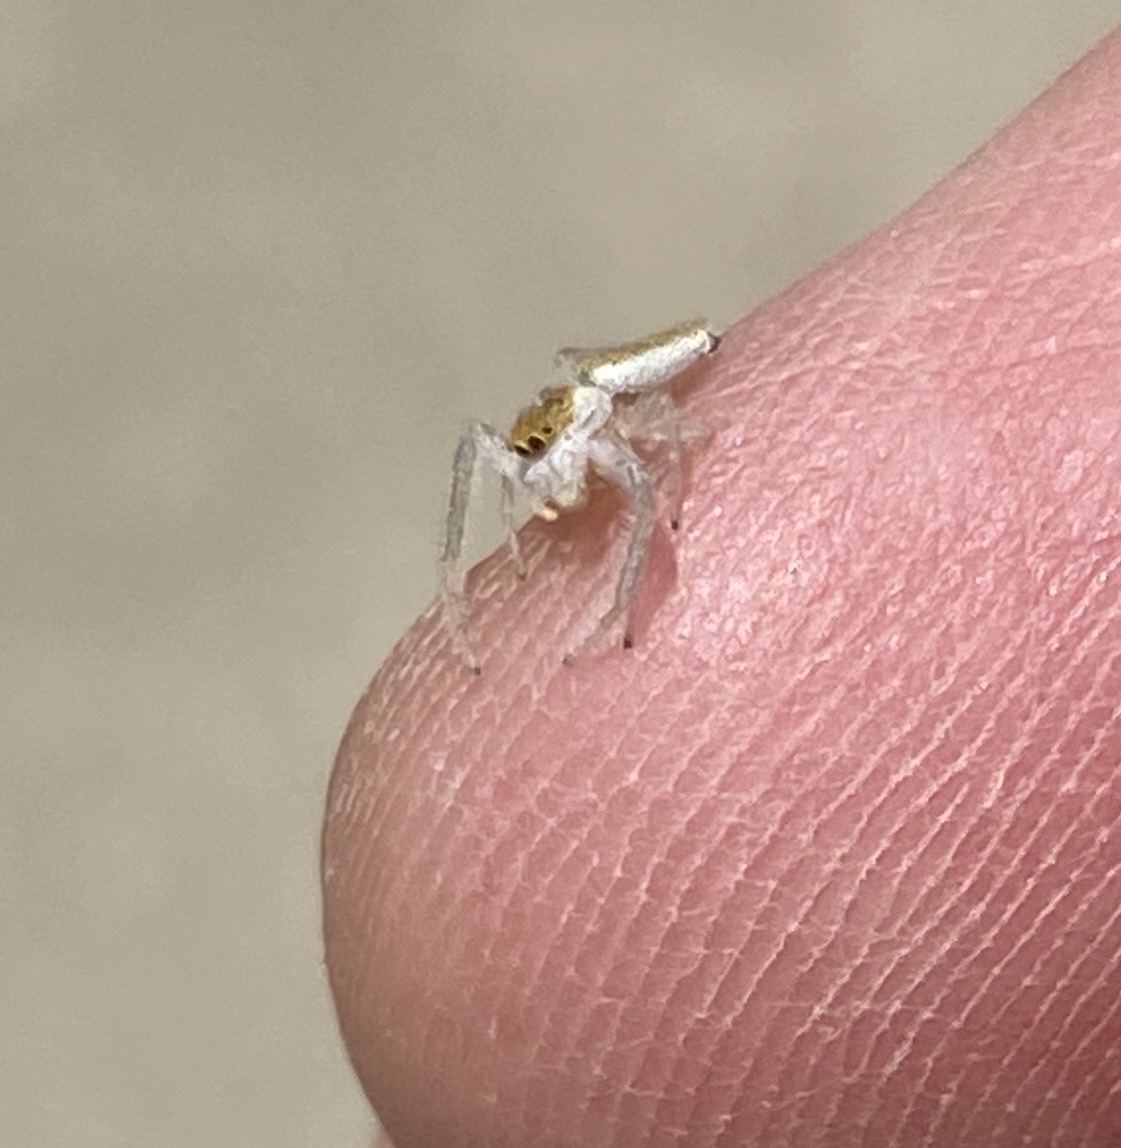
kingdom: Animalia
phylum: Arthropoda
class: Arachnida
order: Araneae
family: Salticidae
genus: Hentzia
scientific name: Hentzia mitrata
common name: White-jawed jumping spider
